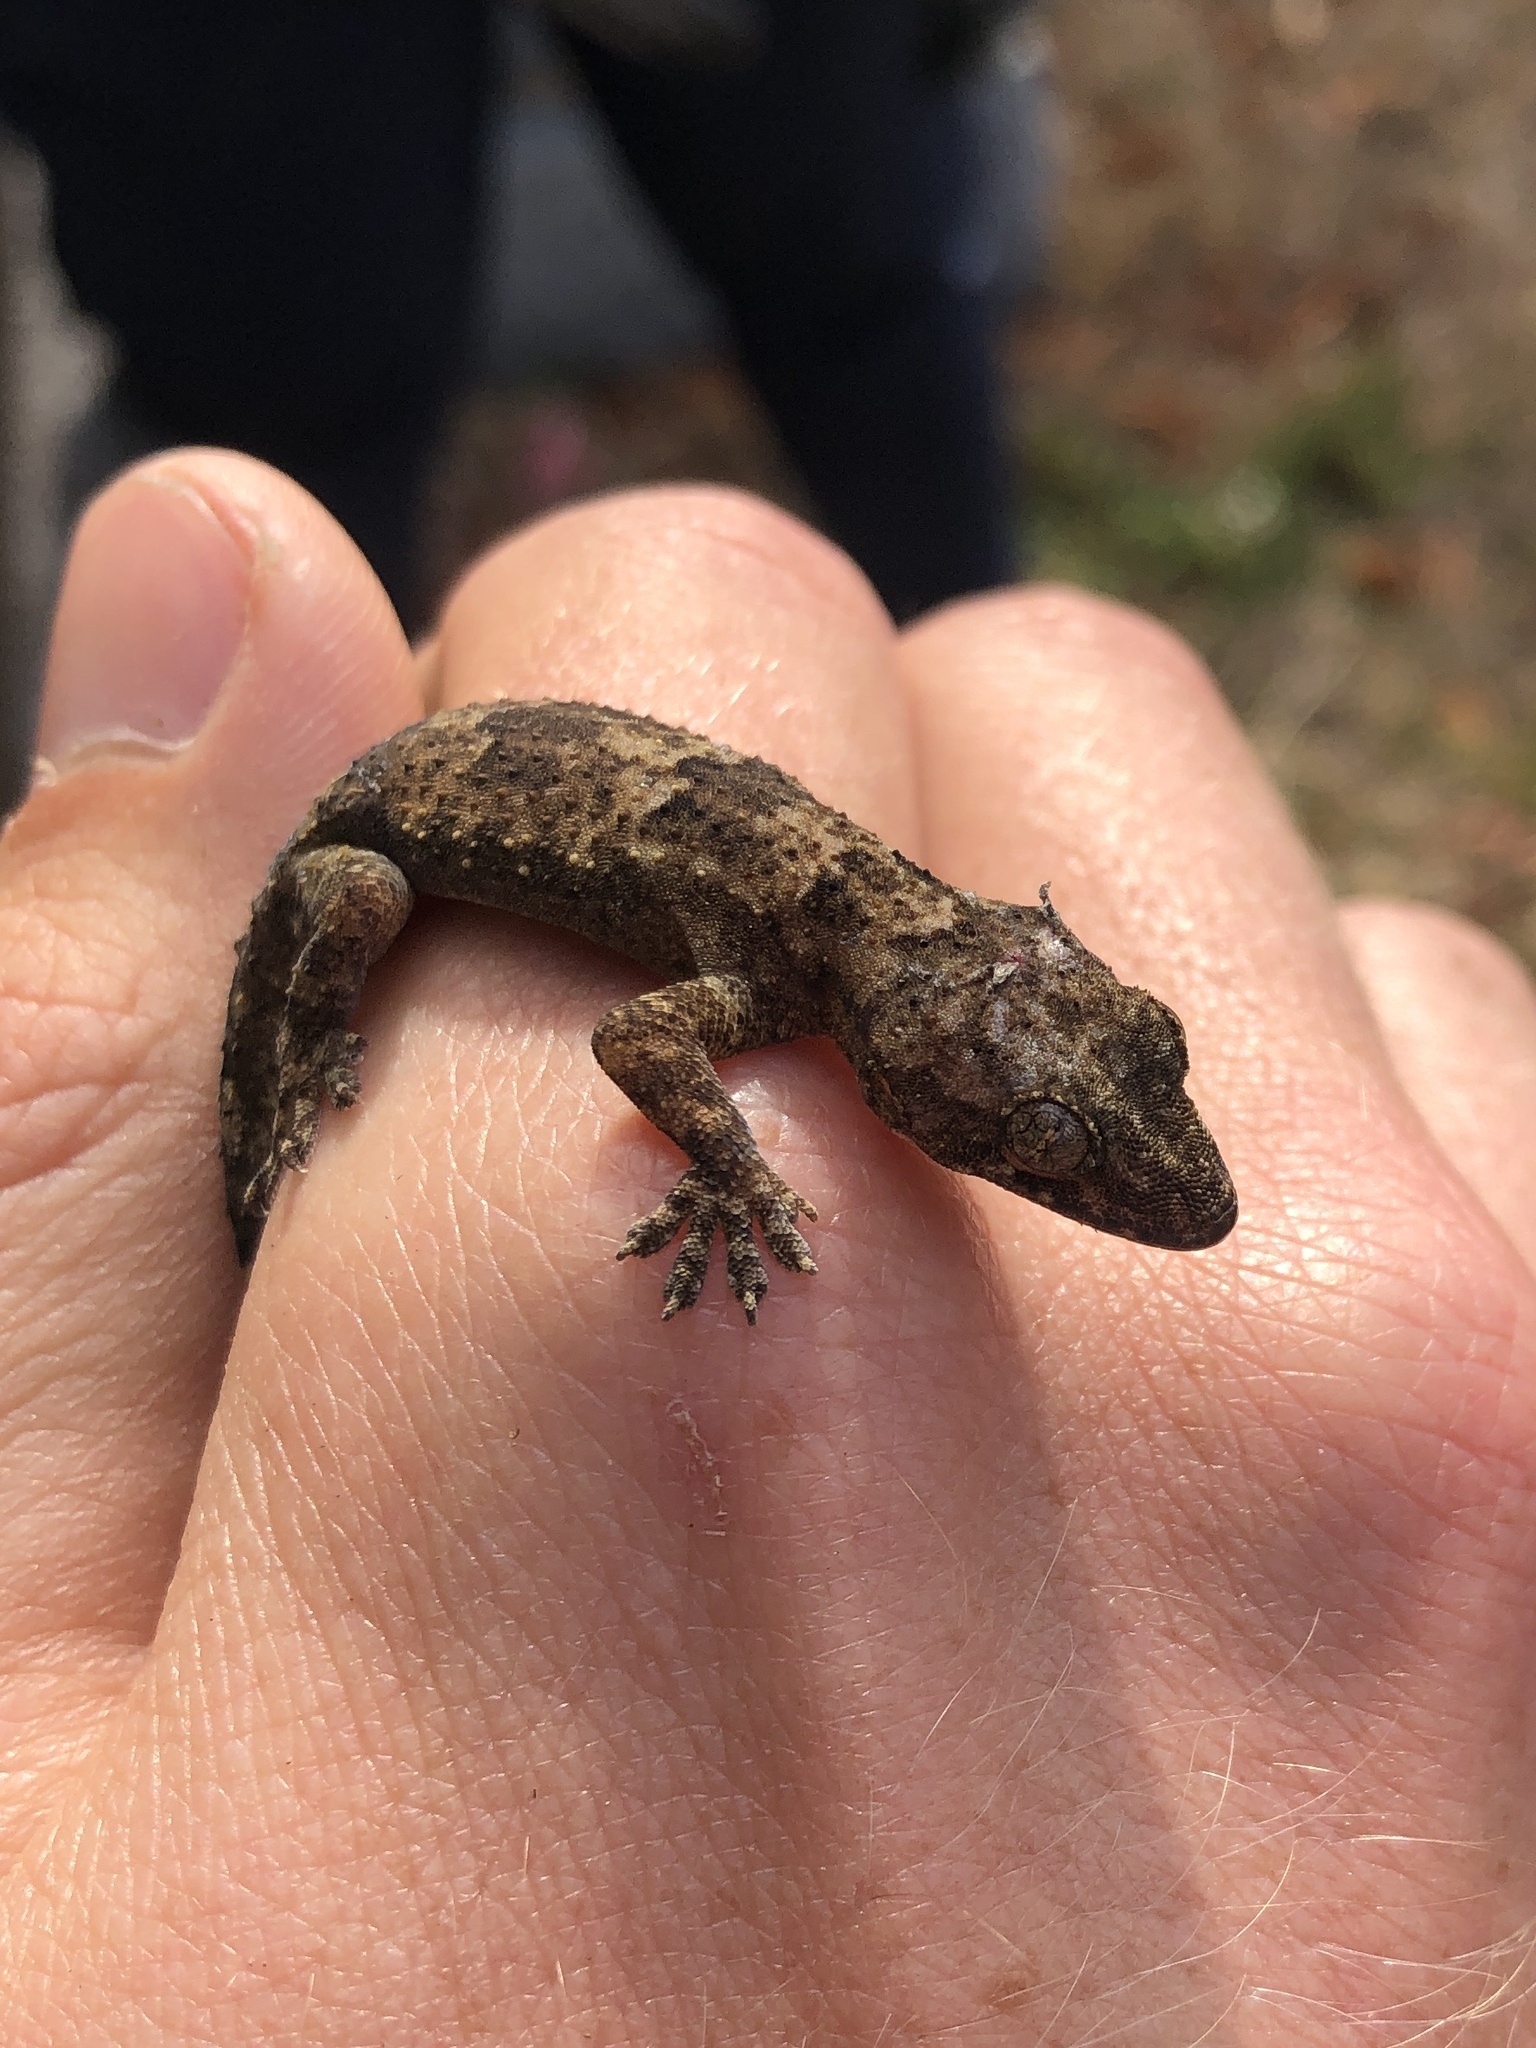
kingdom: Animalia
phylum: Chordata
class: Squamata
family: Gekkonidae
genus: Hemidactylus
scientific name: Hemidactylus mabouia
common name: House gecko
